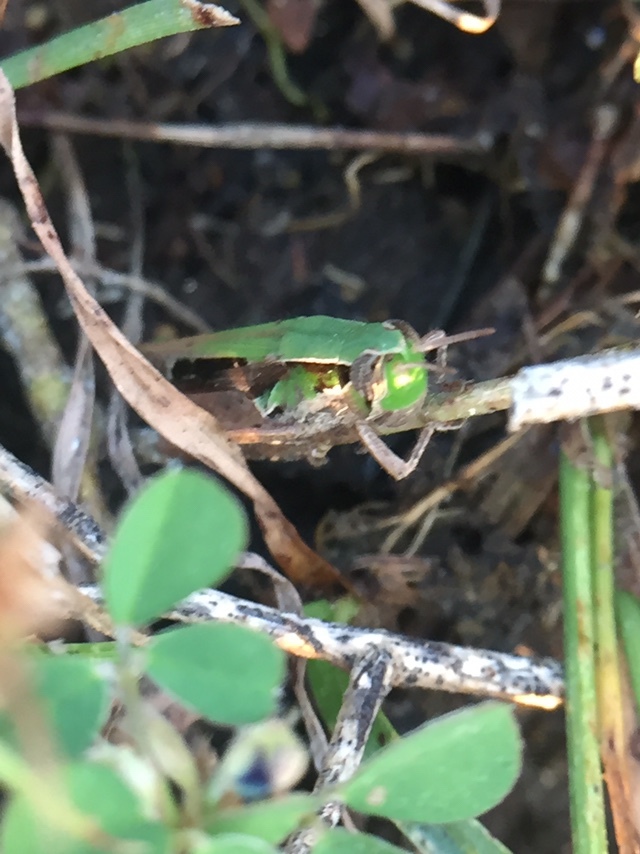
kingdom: Animalia
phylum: Arthropoda
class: Insecta
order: Orthoptera
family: Acrididae
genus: Spathosternum
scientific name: Spathosternum prasiniferum
